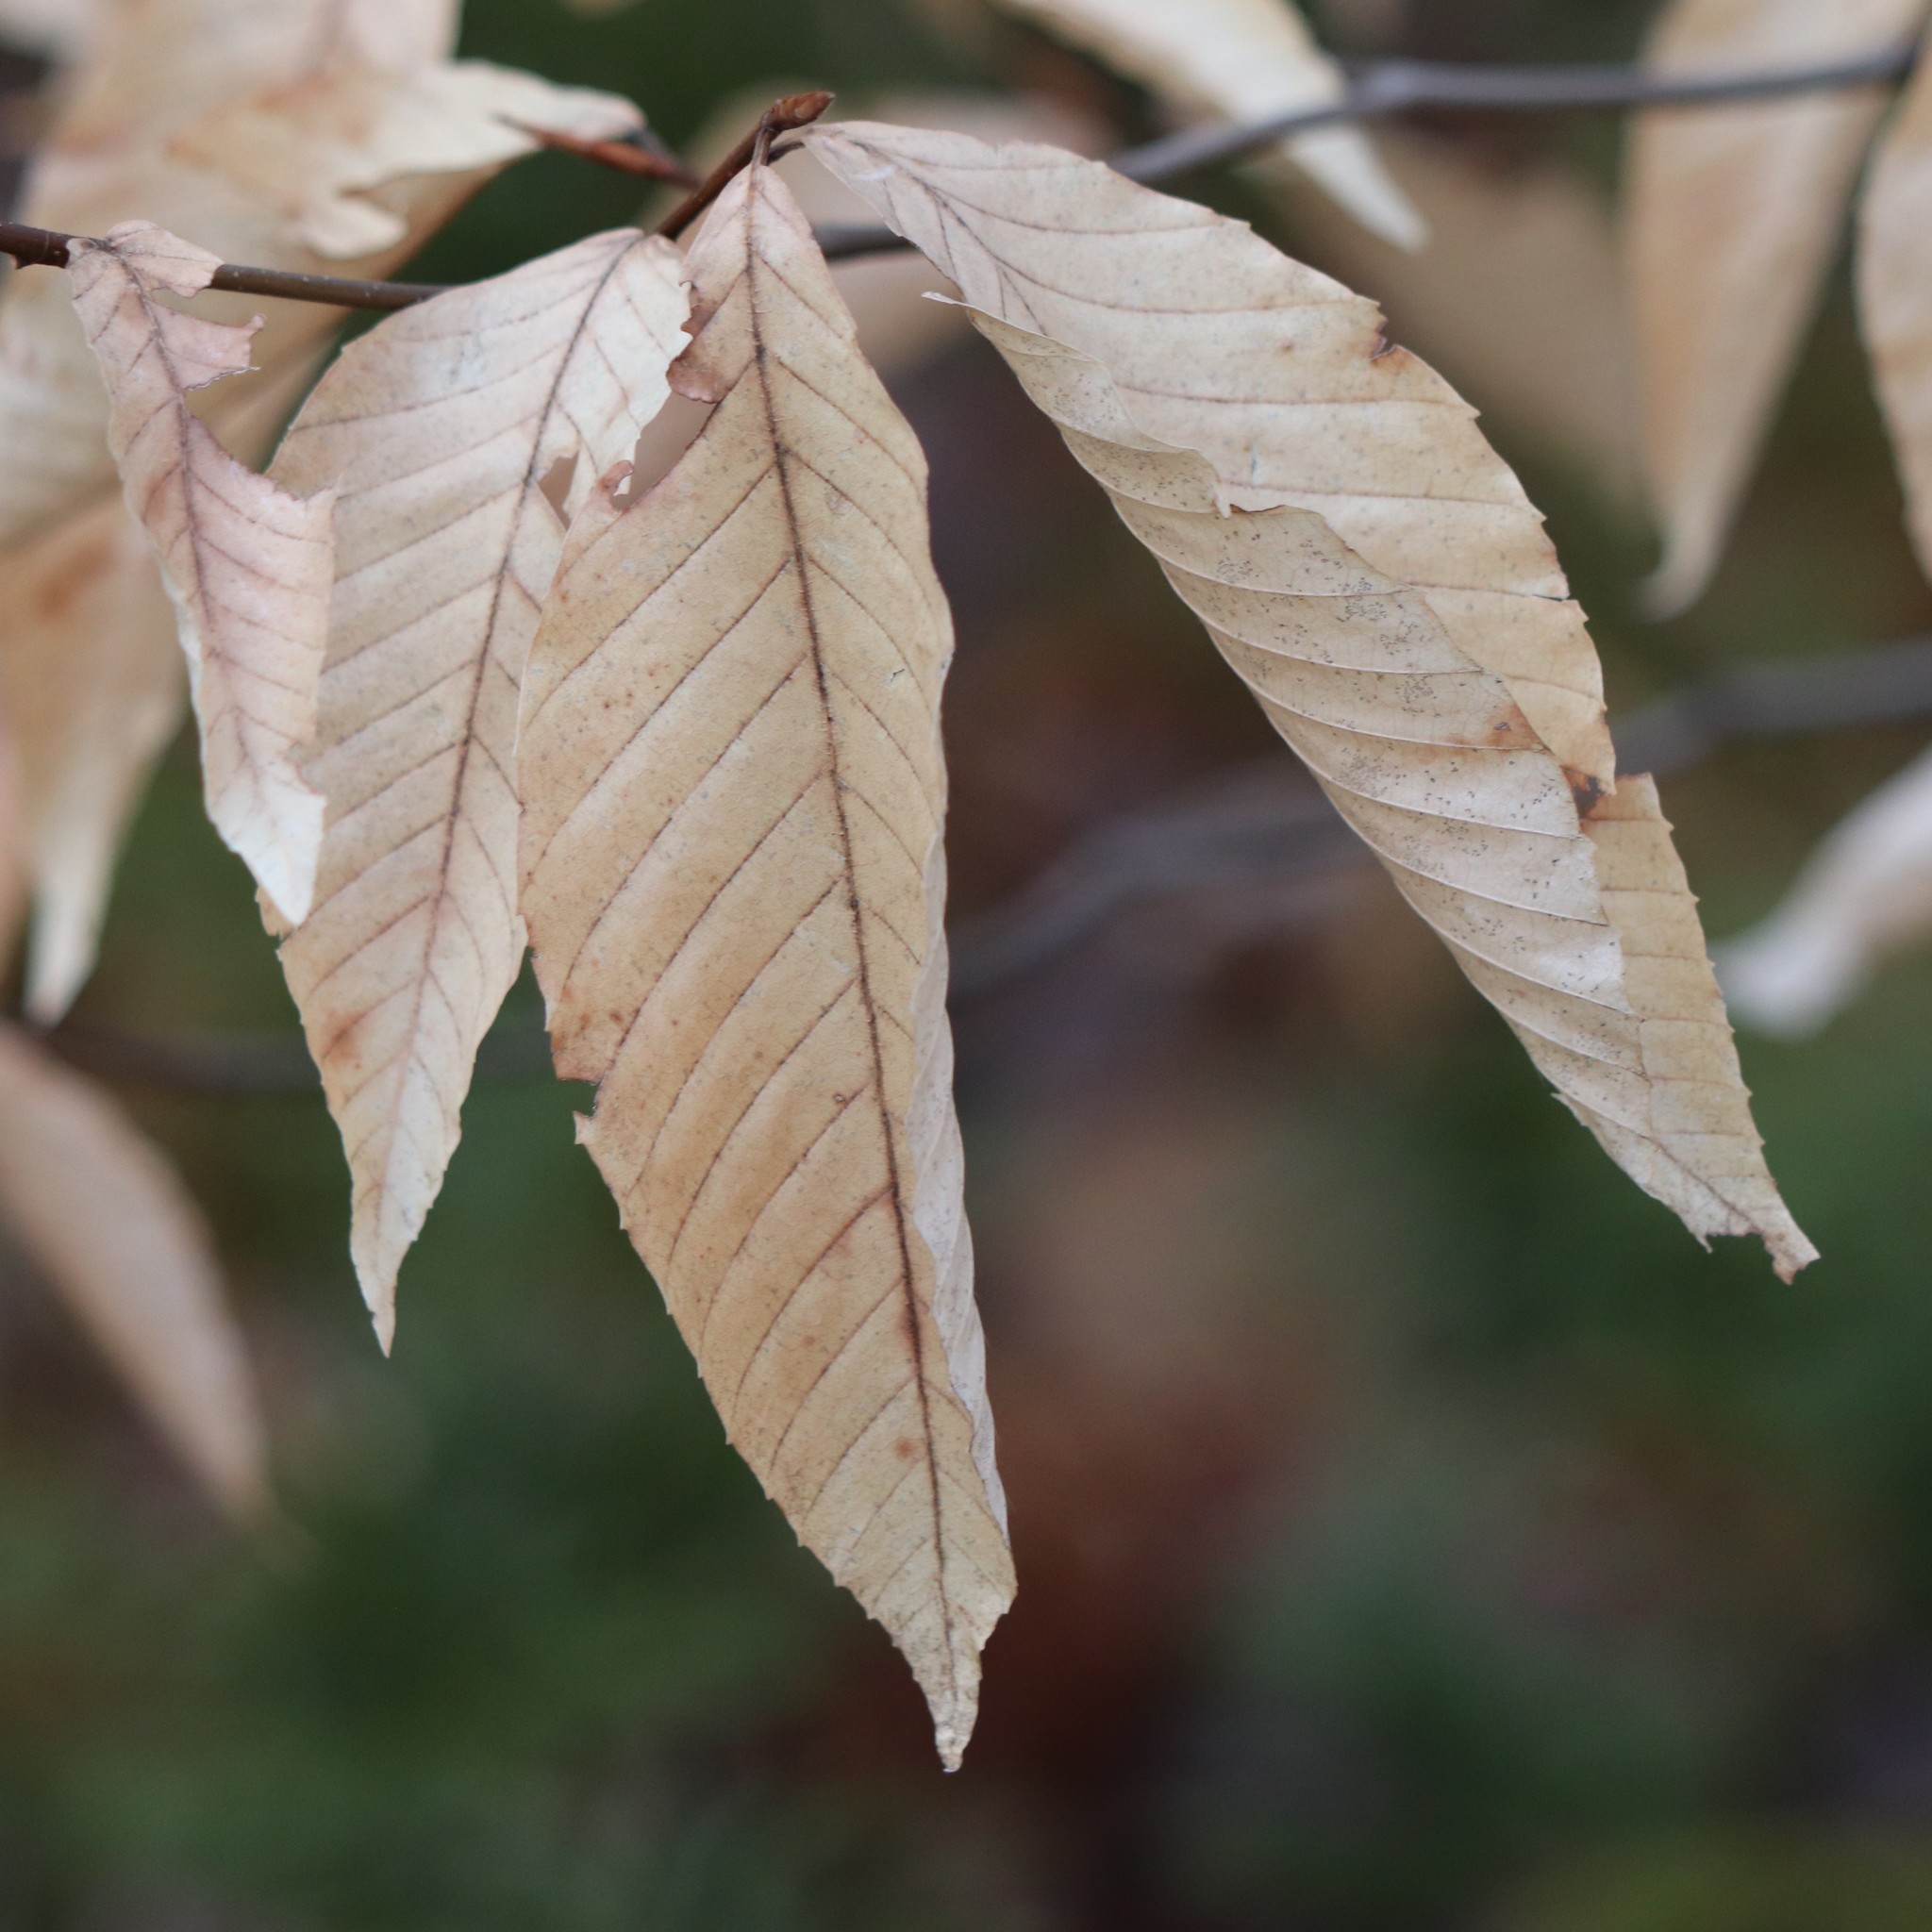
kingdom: Plantae
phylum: Tracheophyta
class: Magnoliopsida
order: Fagales
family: Fagaceae
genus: Fagus
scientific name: Fagus grandifolia
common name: American beech
